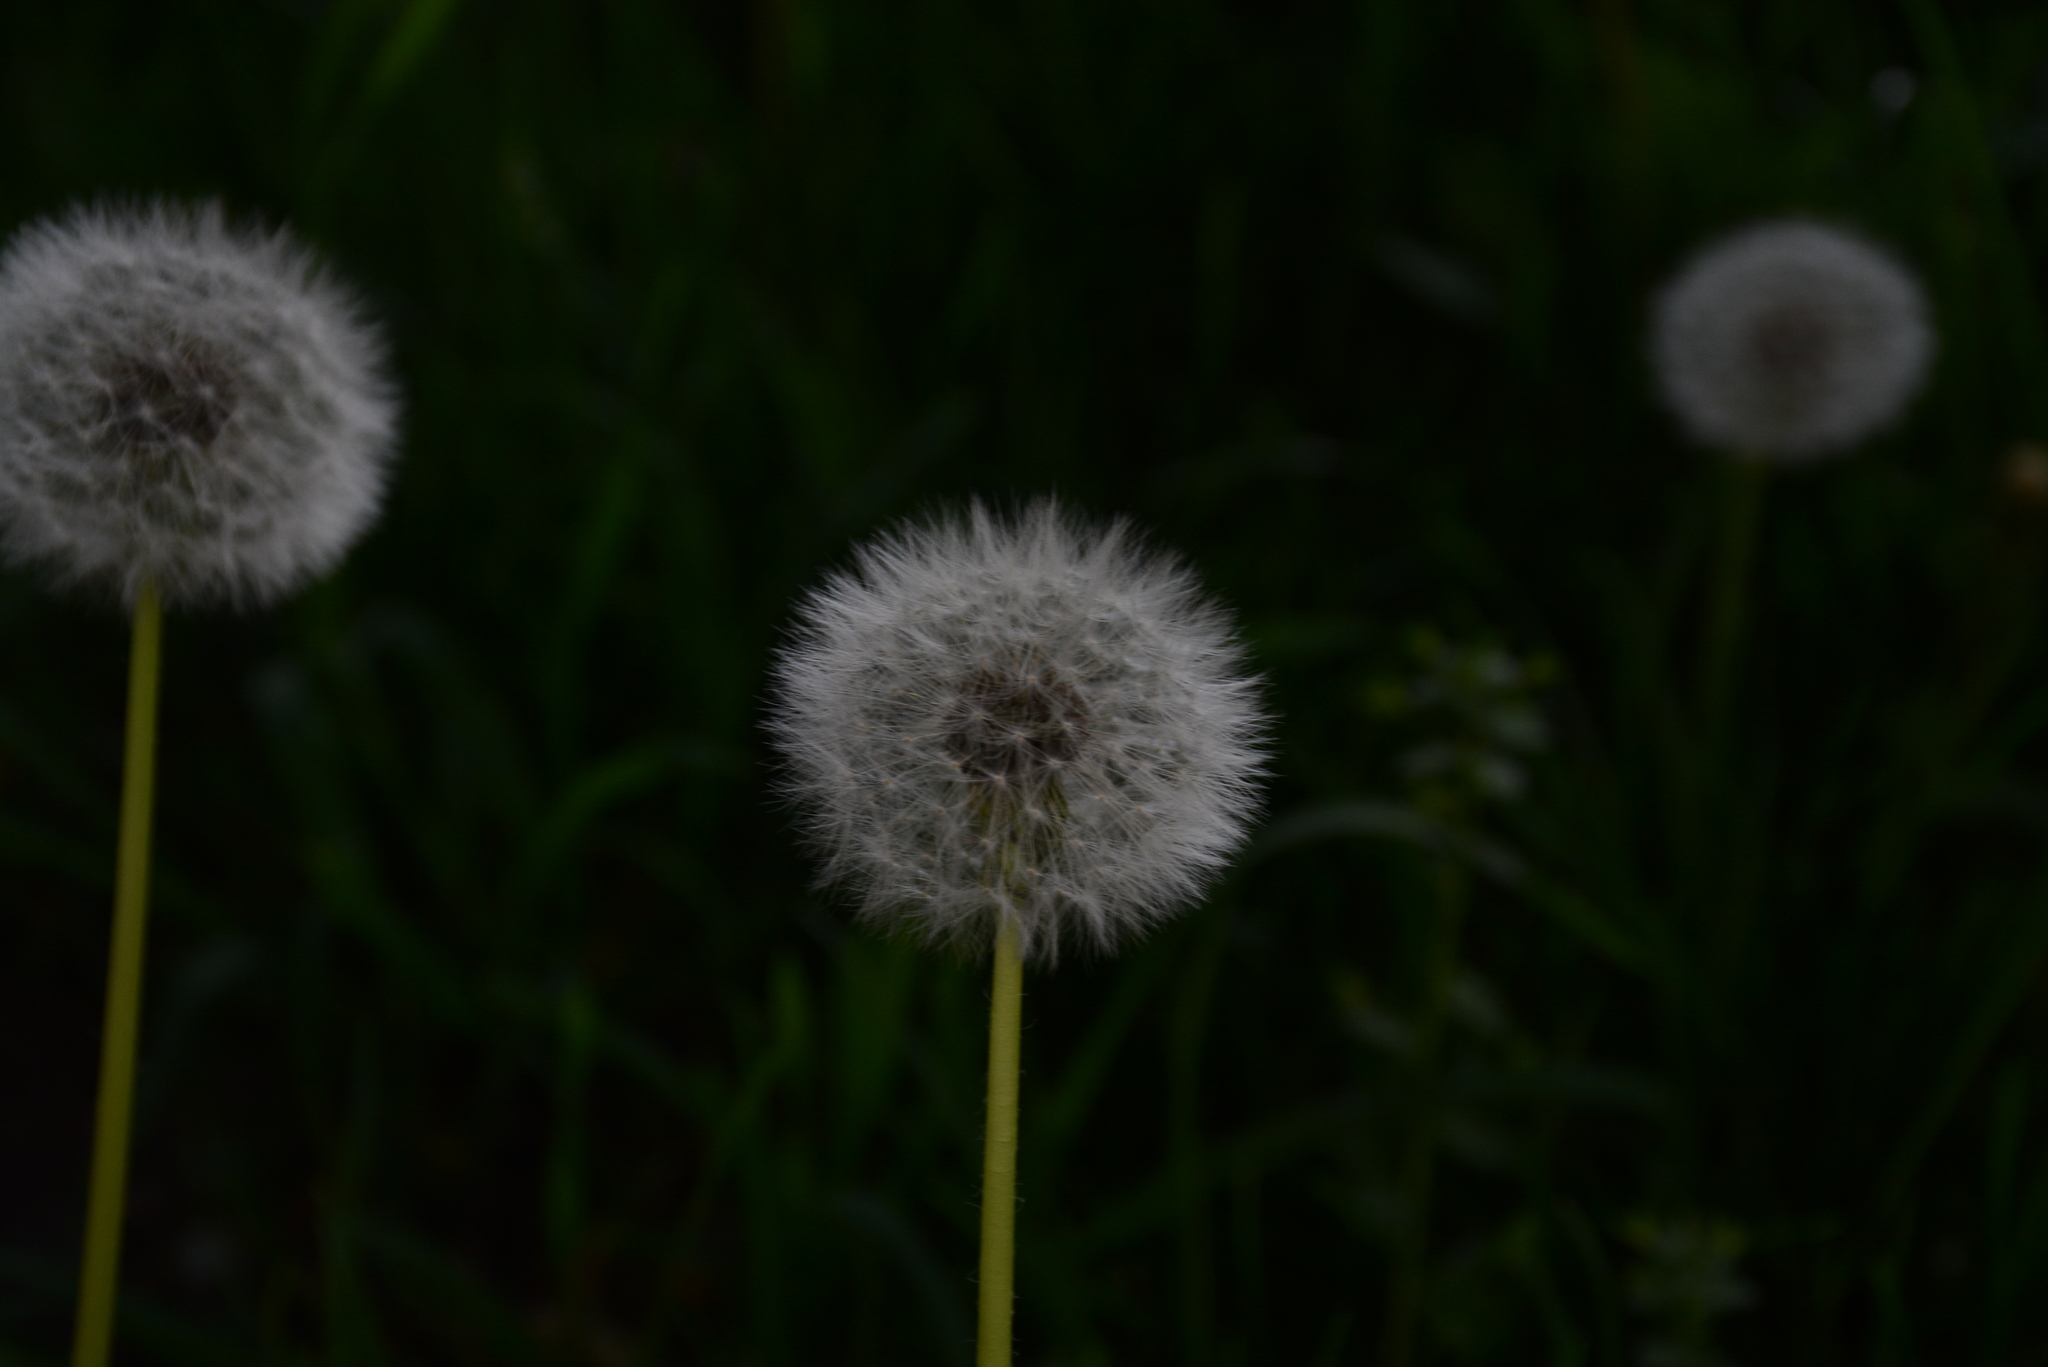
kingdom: Plantae
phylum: Tracheophyta
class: Magnoliopsida
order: Asterales
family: Asteraceae
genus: Taraxacum
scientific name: Taraxacum officinale
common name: Common dandelion
